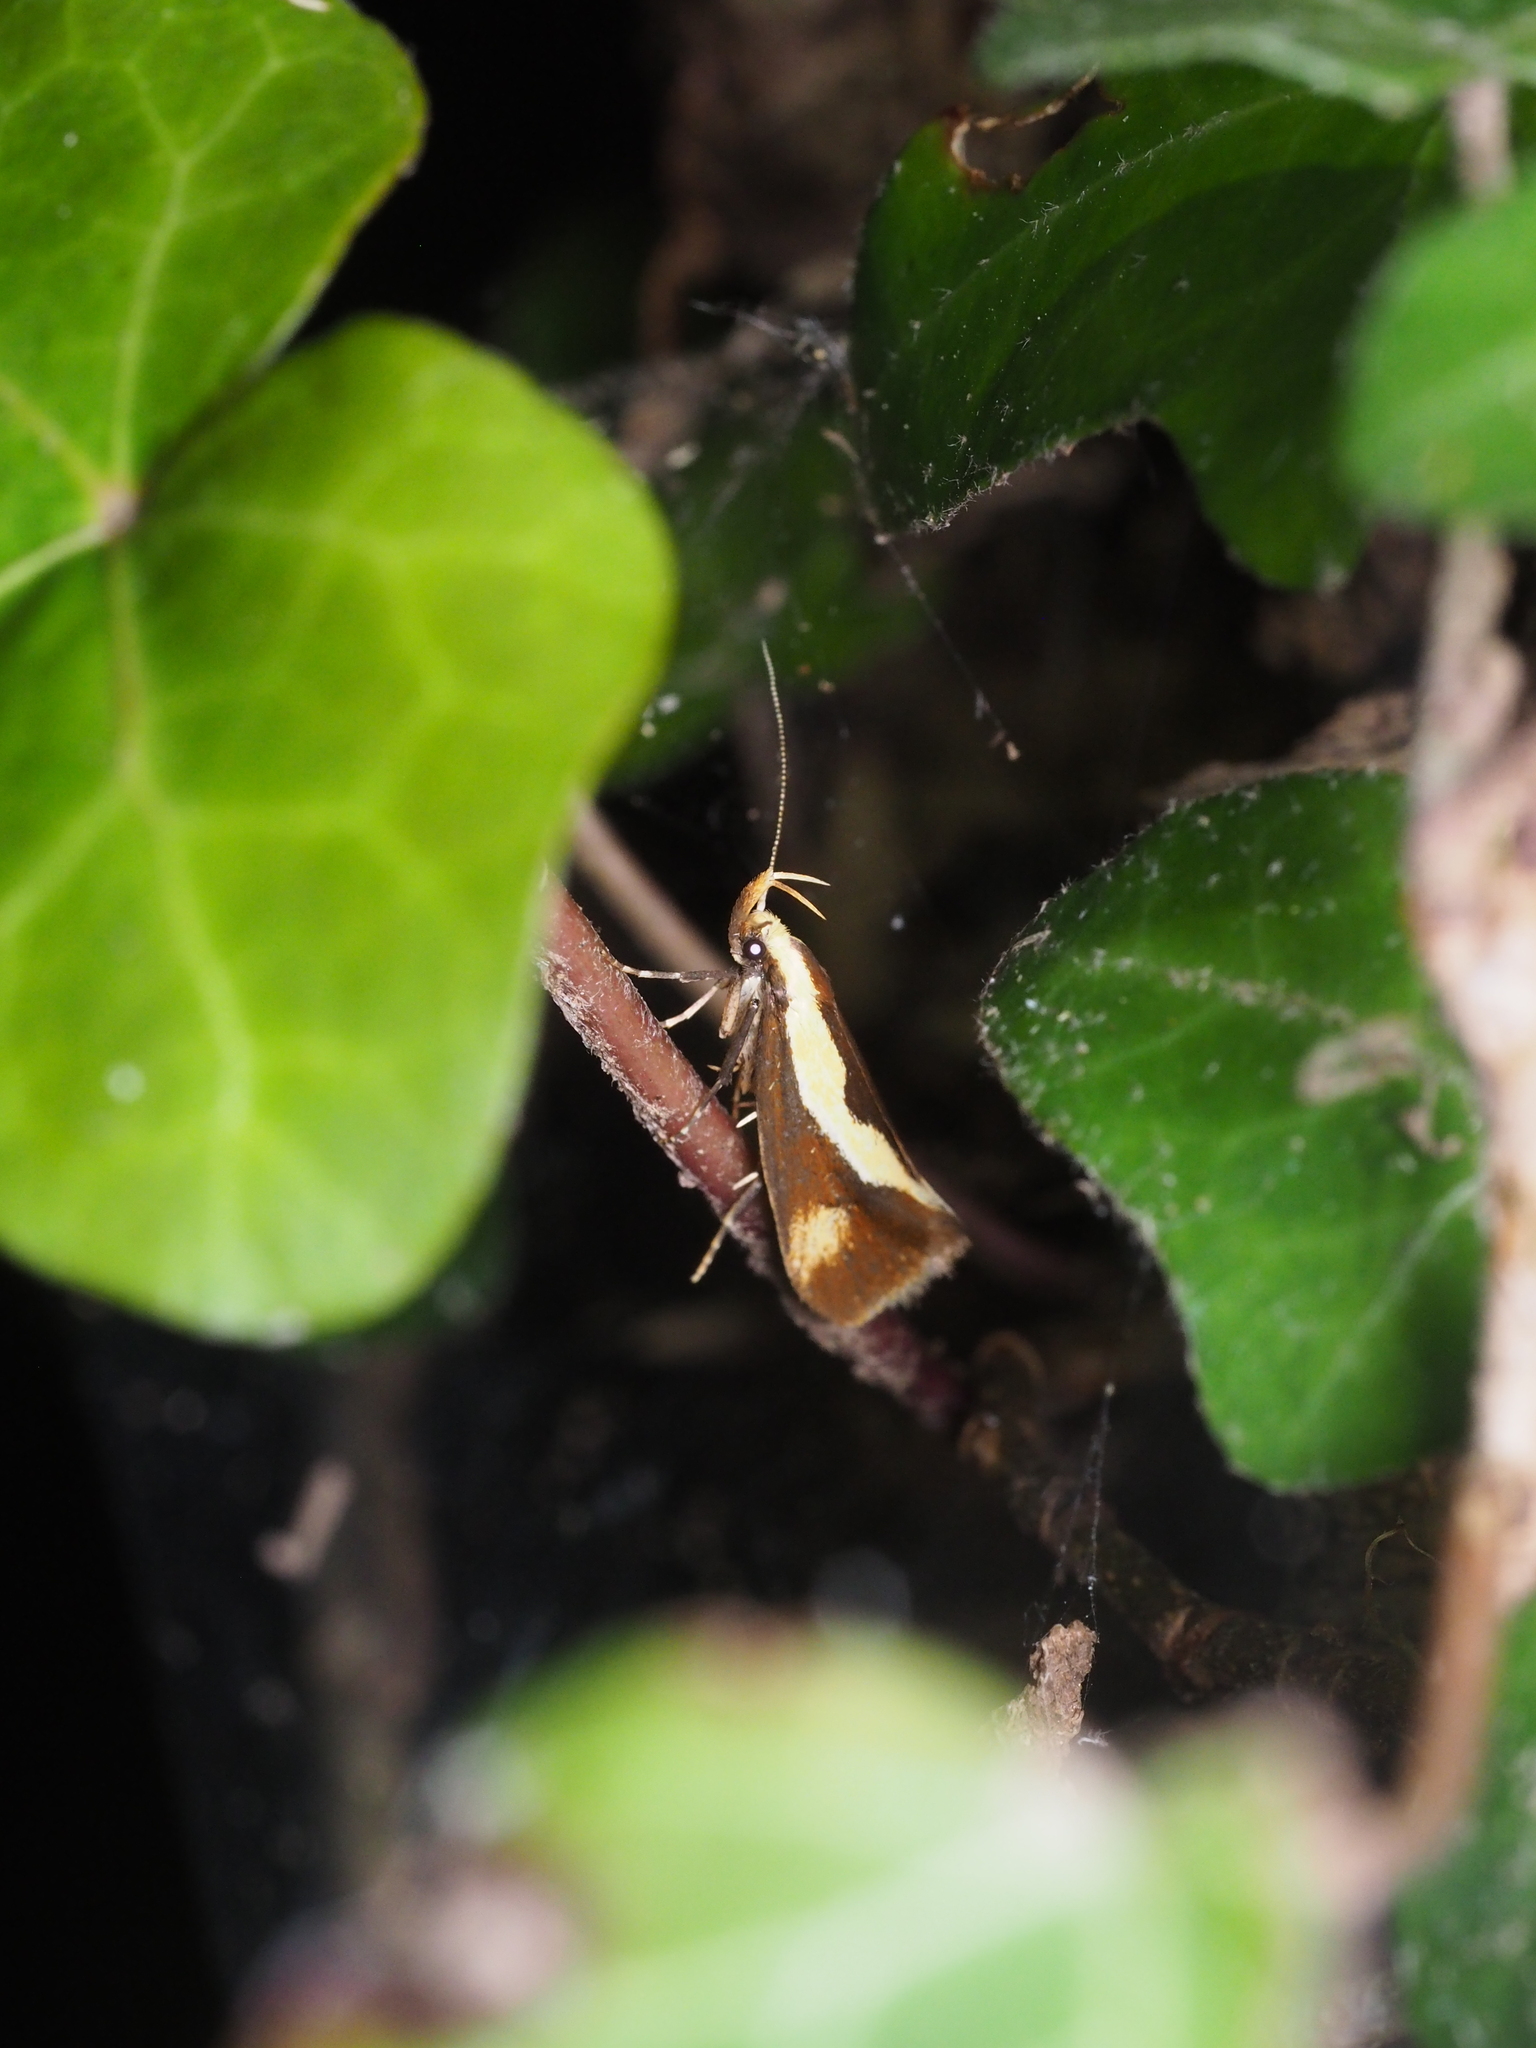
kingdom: Animalia
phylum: Arthropoda
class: Insecta
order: Lepidoptera
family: Oecophoridae
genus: Harpella
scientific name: Harpella forficella
